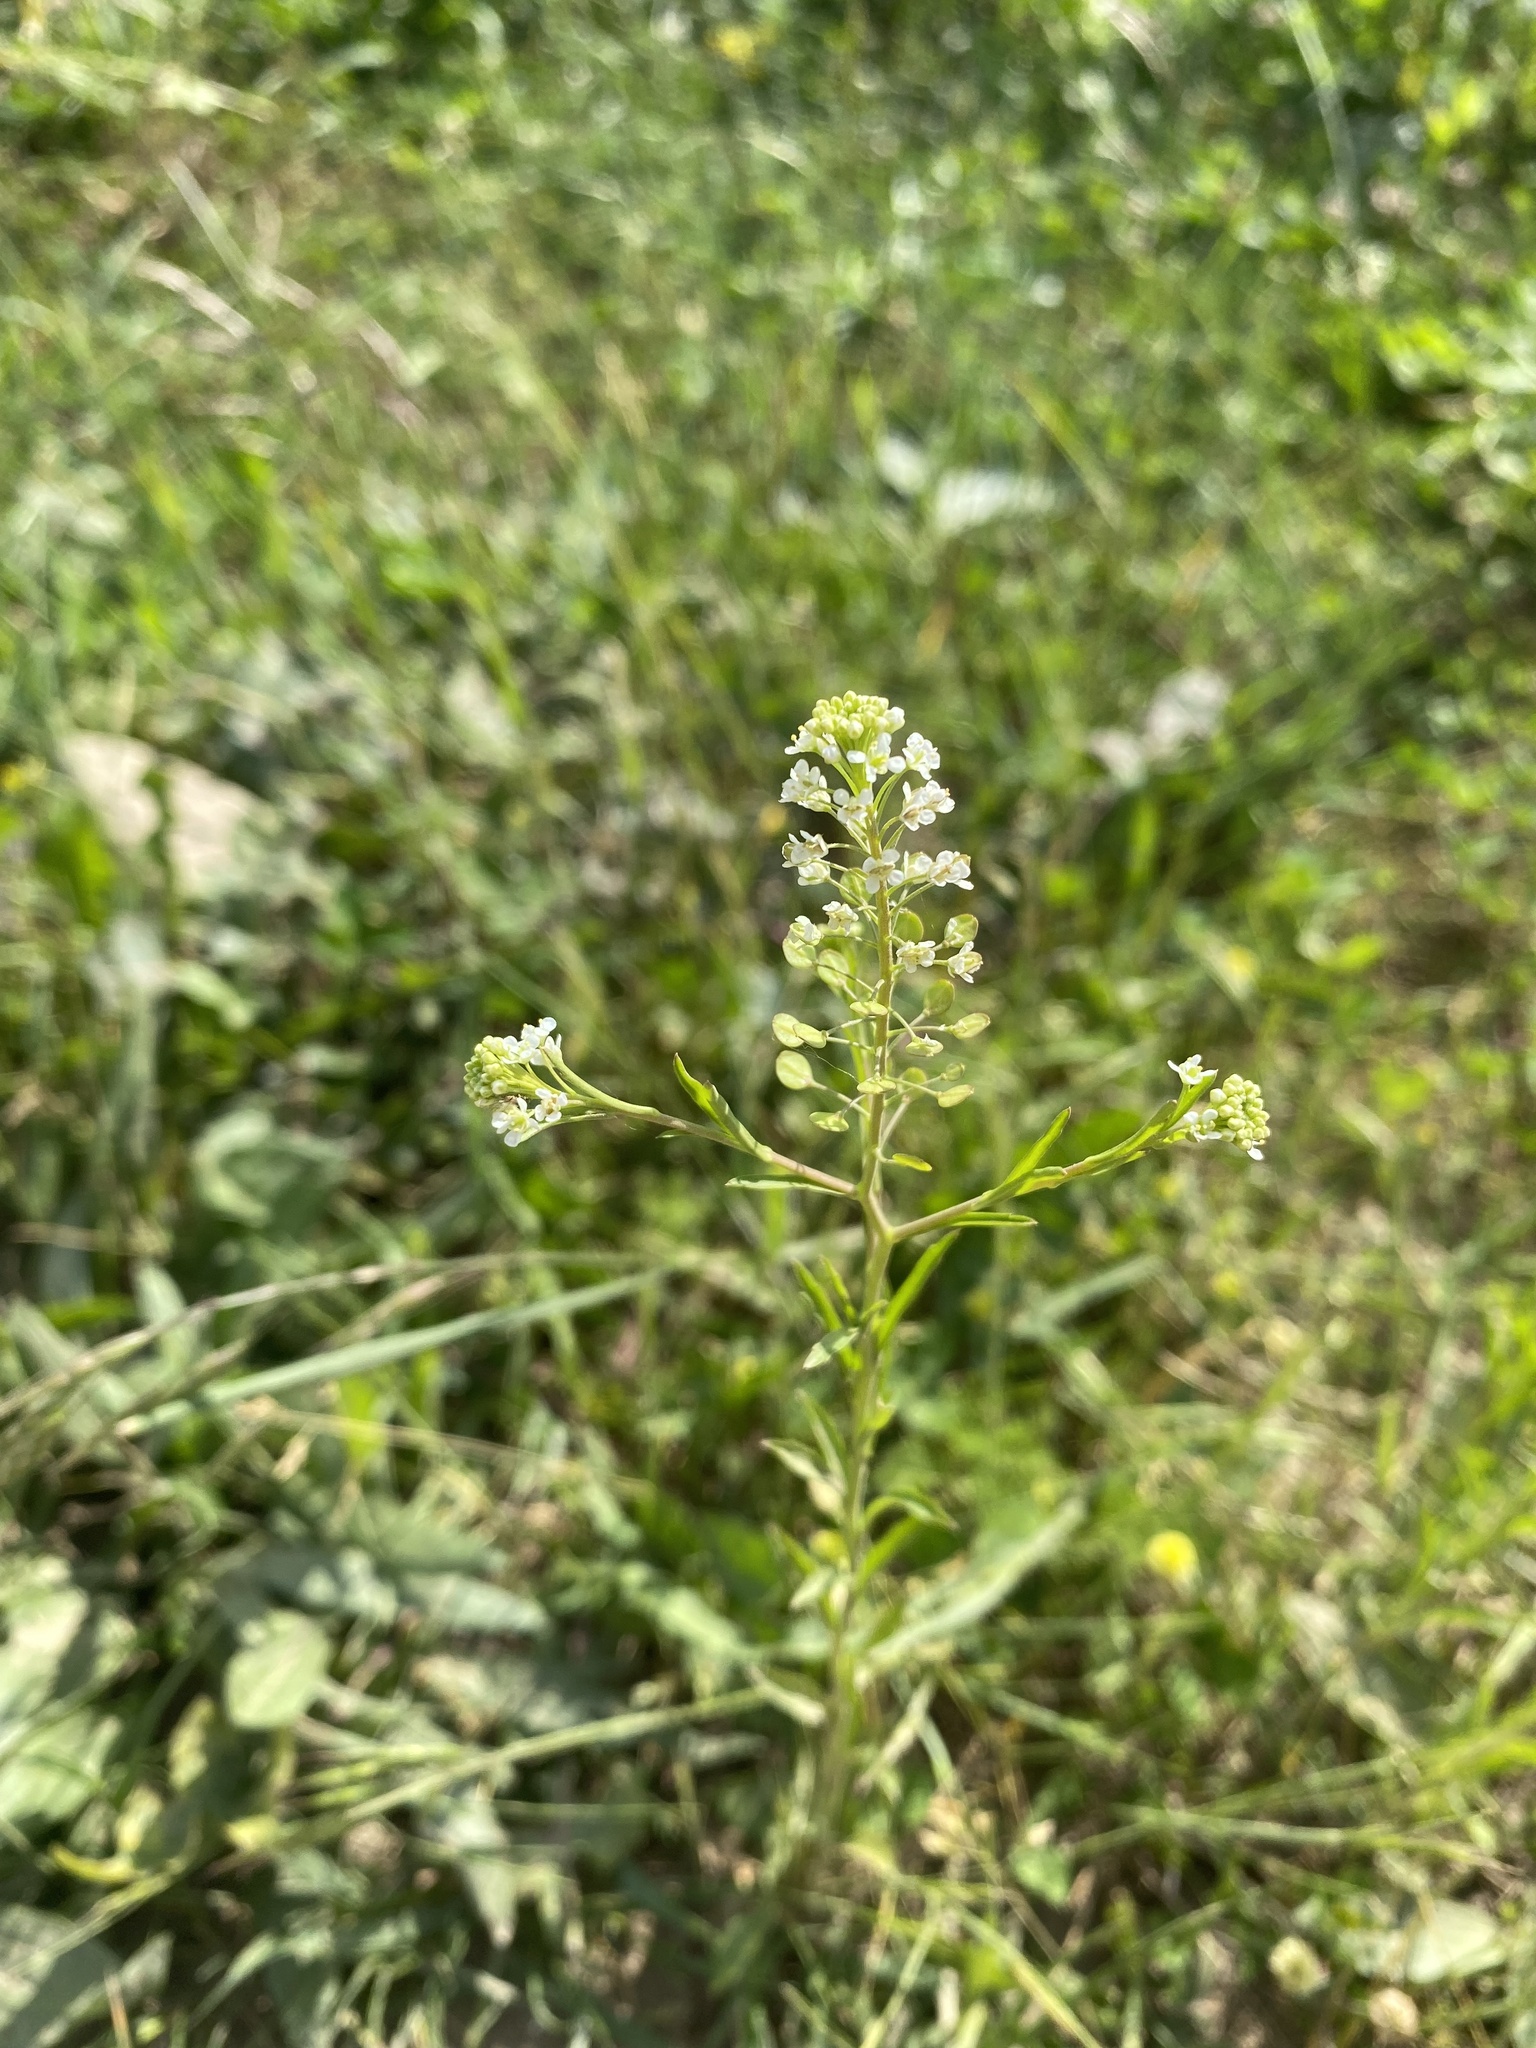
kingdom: Plantae
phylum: Tracheophyta
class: Magnoliopsida
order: Brassicales
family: Brassicaceae
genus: Lepidium
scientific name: Lepidium virginicum
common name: Least pepperwort
